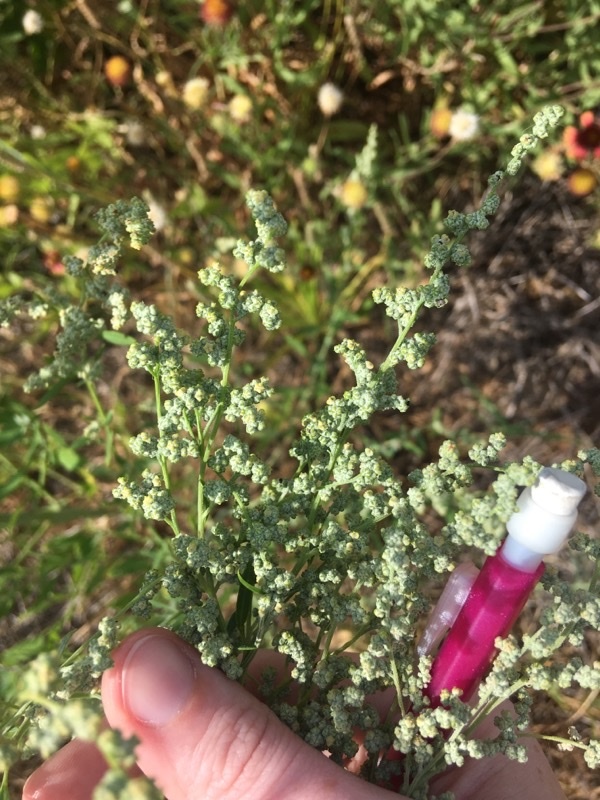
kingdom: Plantae
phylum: Tracheophyta
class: Magnoliopsida
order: Caryophyllales
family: Amaranthaceae
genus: Chenopodium
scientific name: Chenopodium album
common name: Fat-hen
